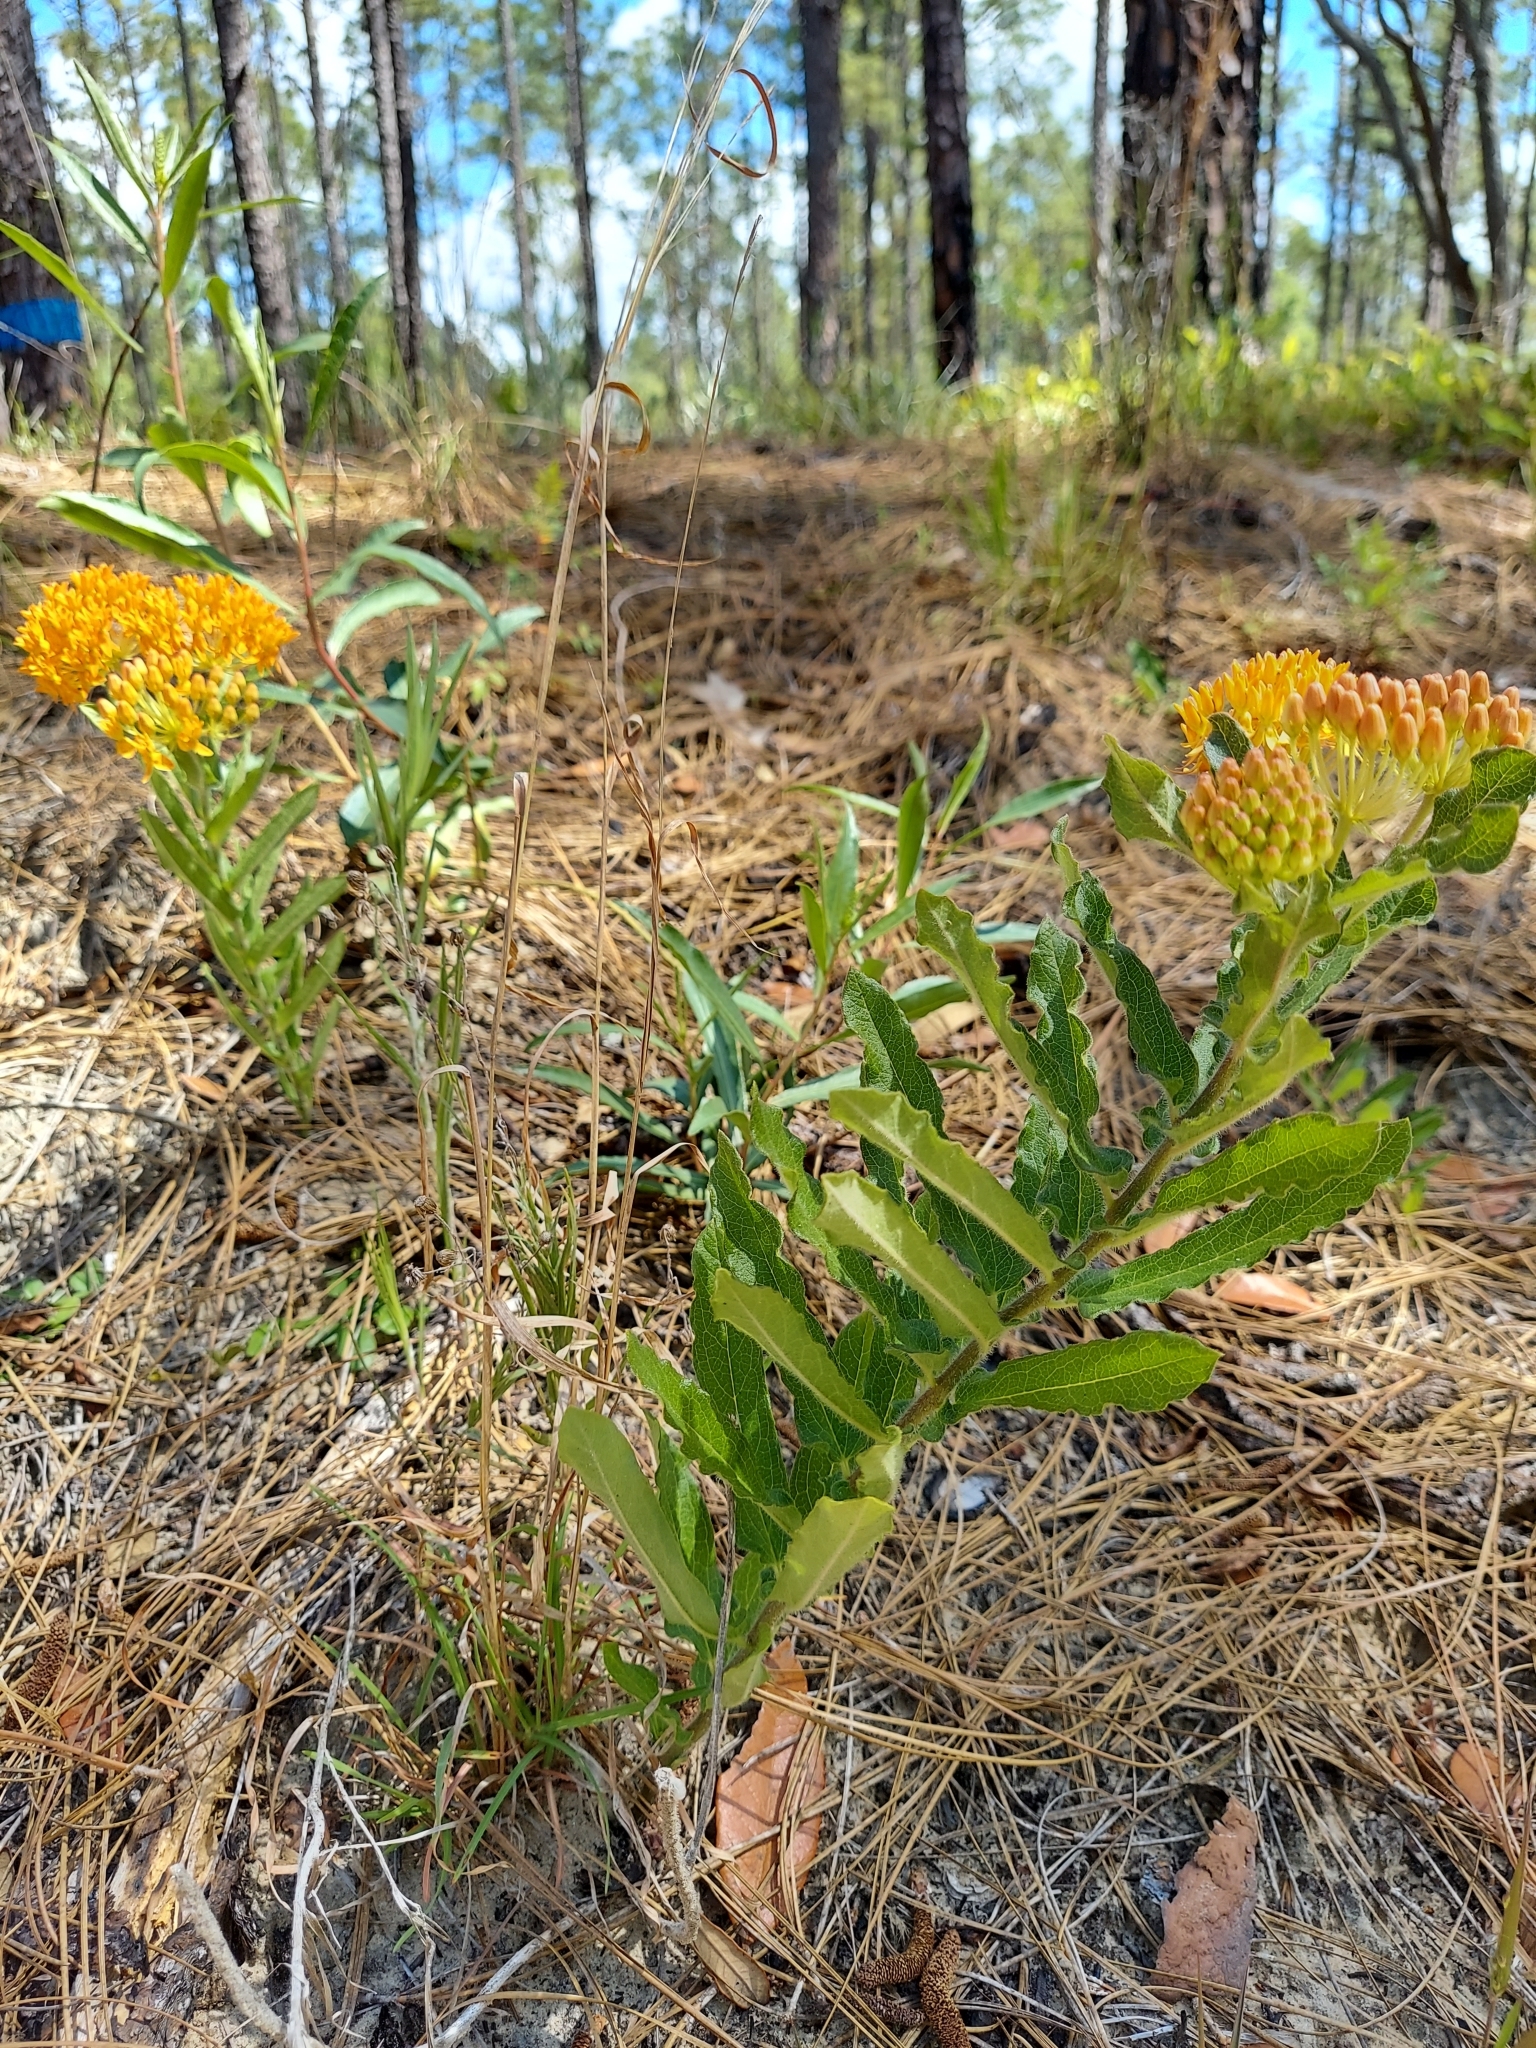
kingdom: Plantae
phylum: Tracheophyta
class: Magnoliopsida
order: Gentianales
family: Apocynaceae
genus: Asclepias
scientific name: Asclepias tuberosa
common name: Butterfly milkweed
